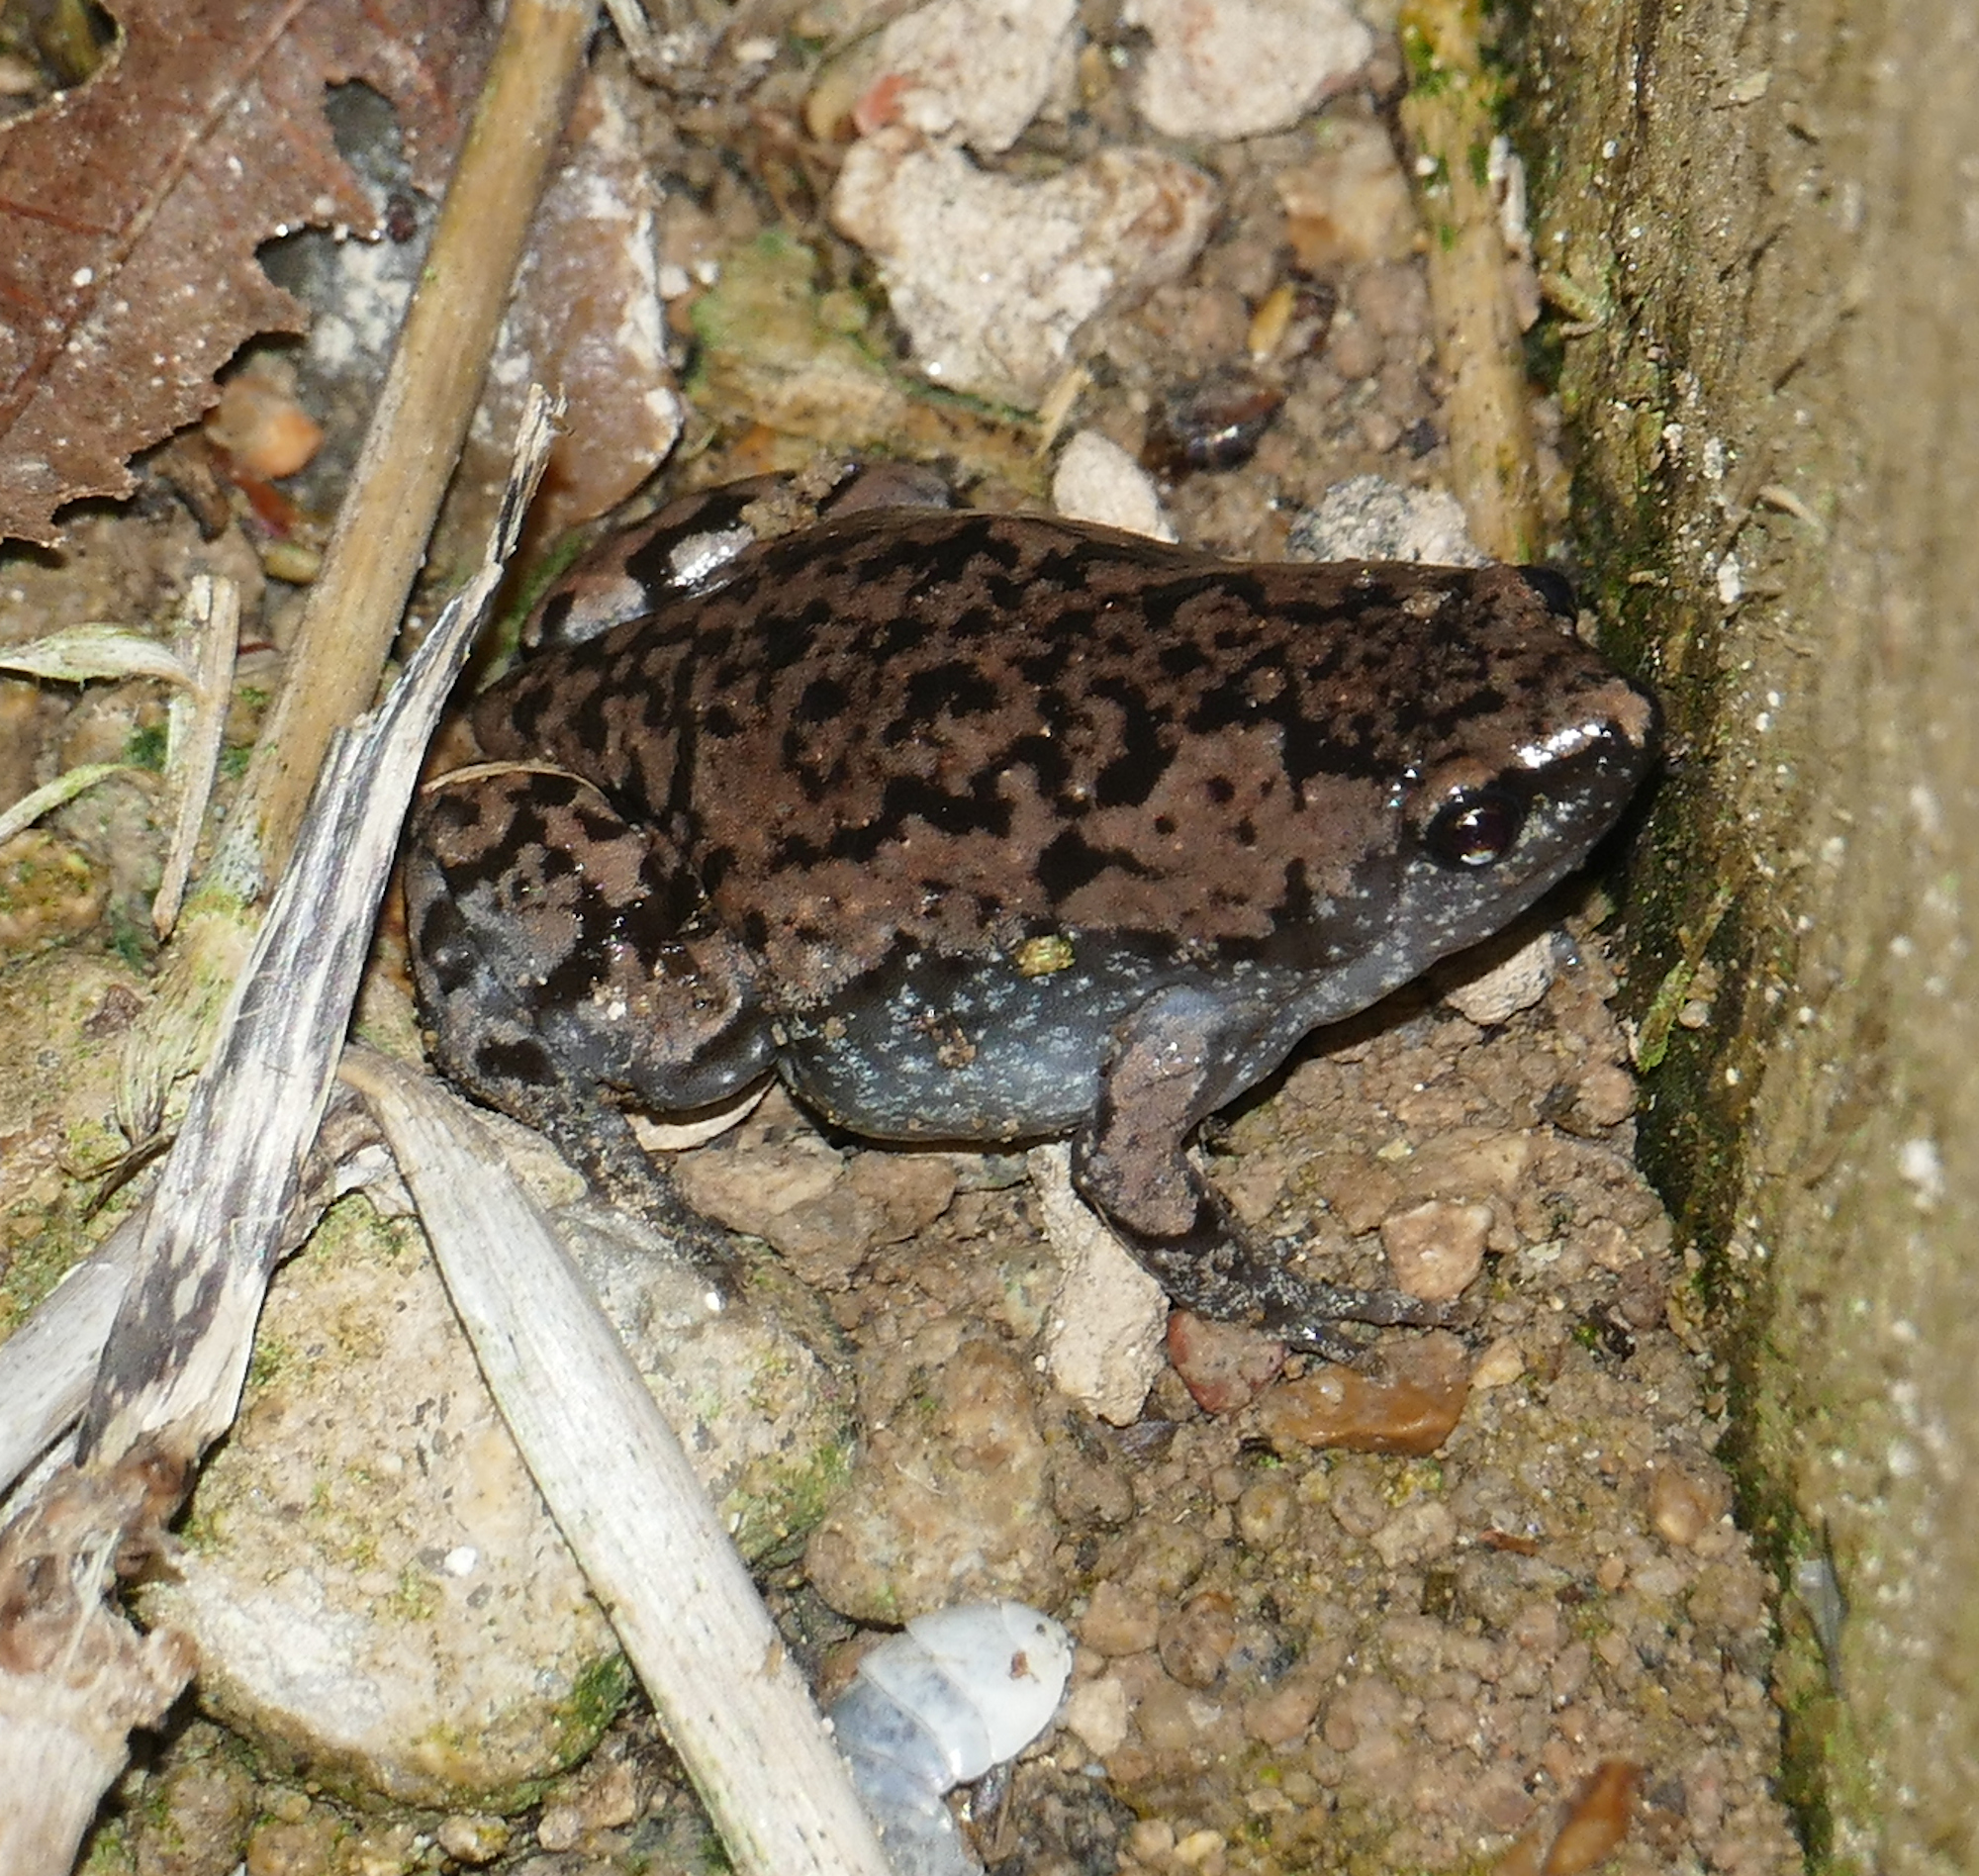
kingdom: Animalia
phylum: Chordata
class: Amphibia
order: Anura
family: Microhylidae
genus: Gastrophryne
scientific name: Gastrophryne carolinensis
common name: Eastern narrowmouth toad
